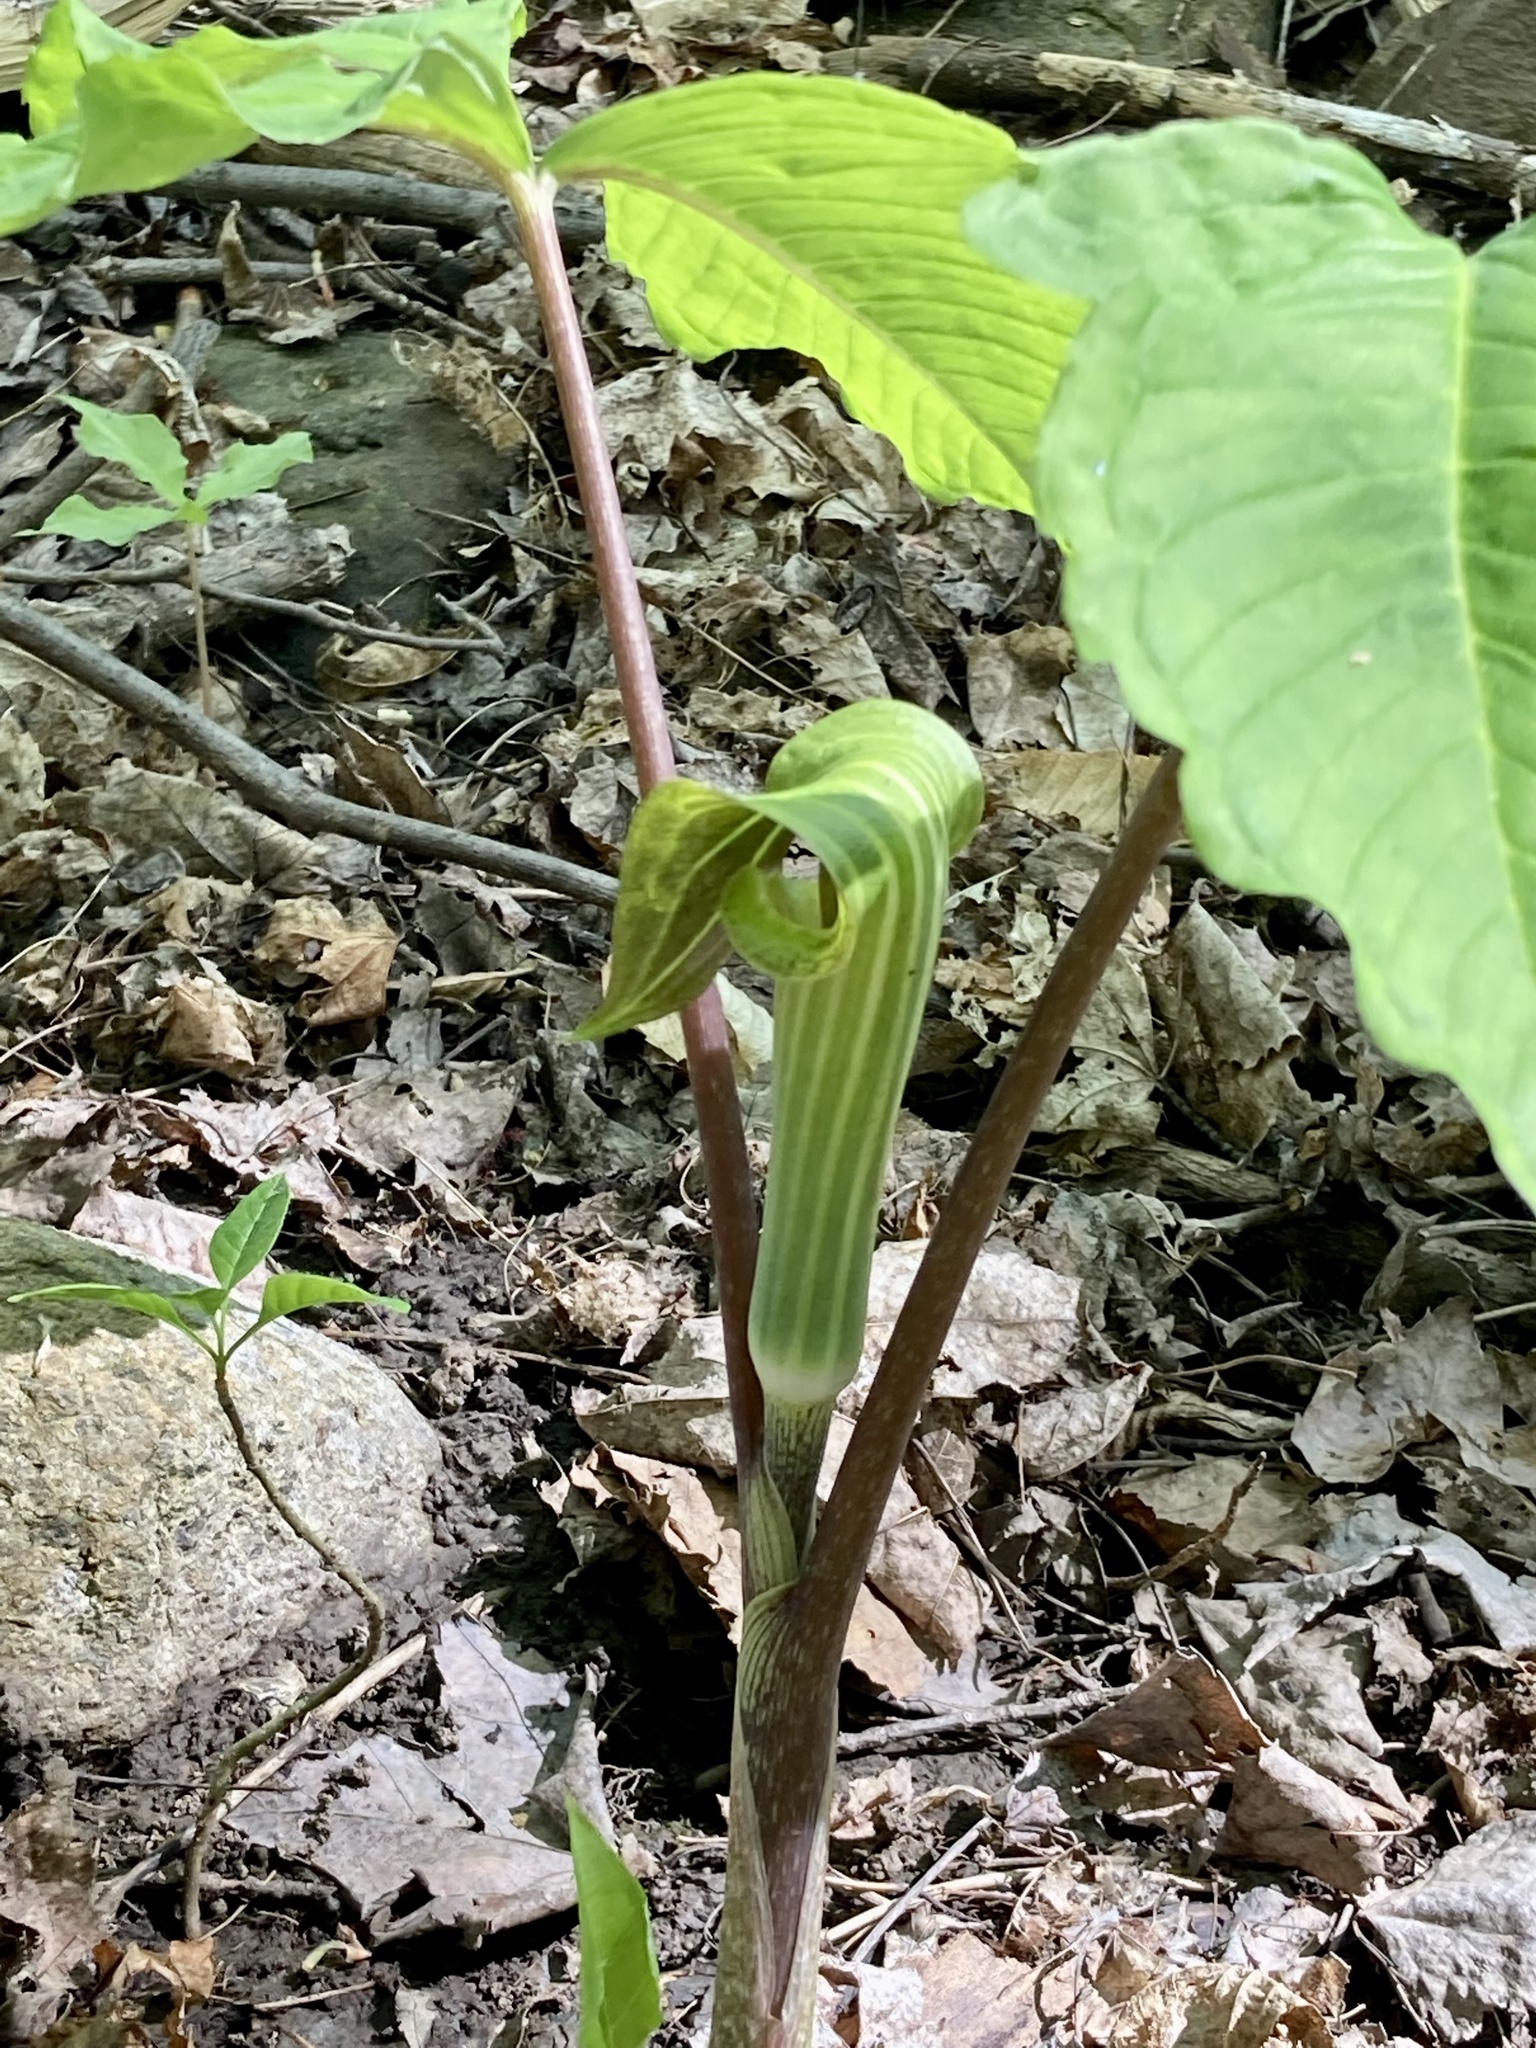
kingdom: Plantae
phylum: Tracheophyta
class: Liliopsida
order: Alismatales
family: Araceae
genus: Arisaema
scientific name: Arisaema triphyllum
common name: Jack-in-the-pulpit
